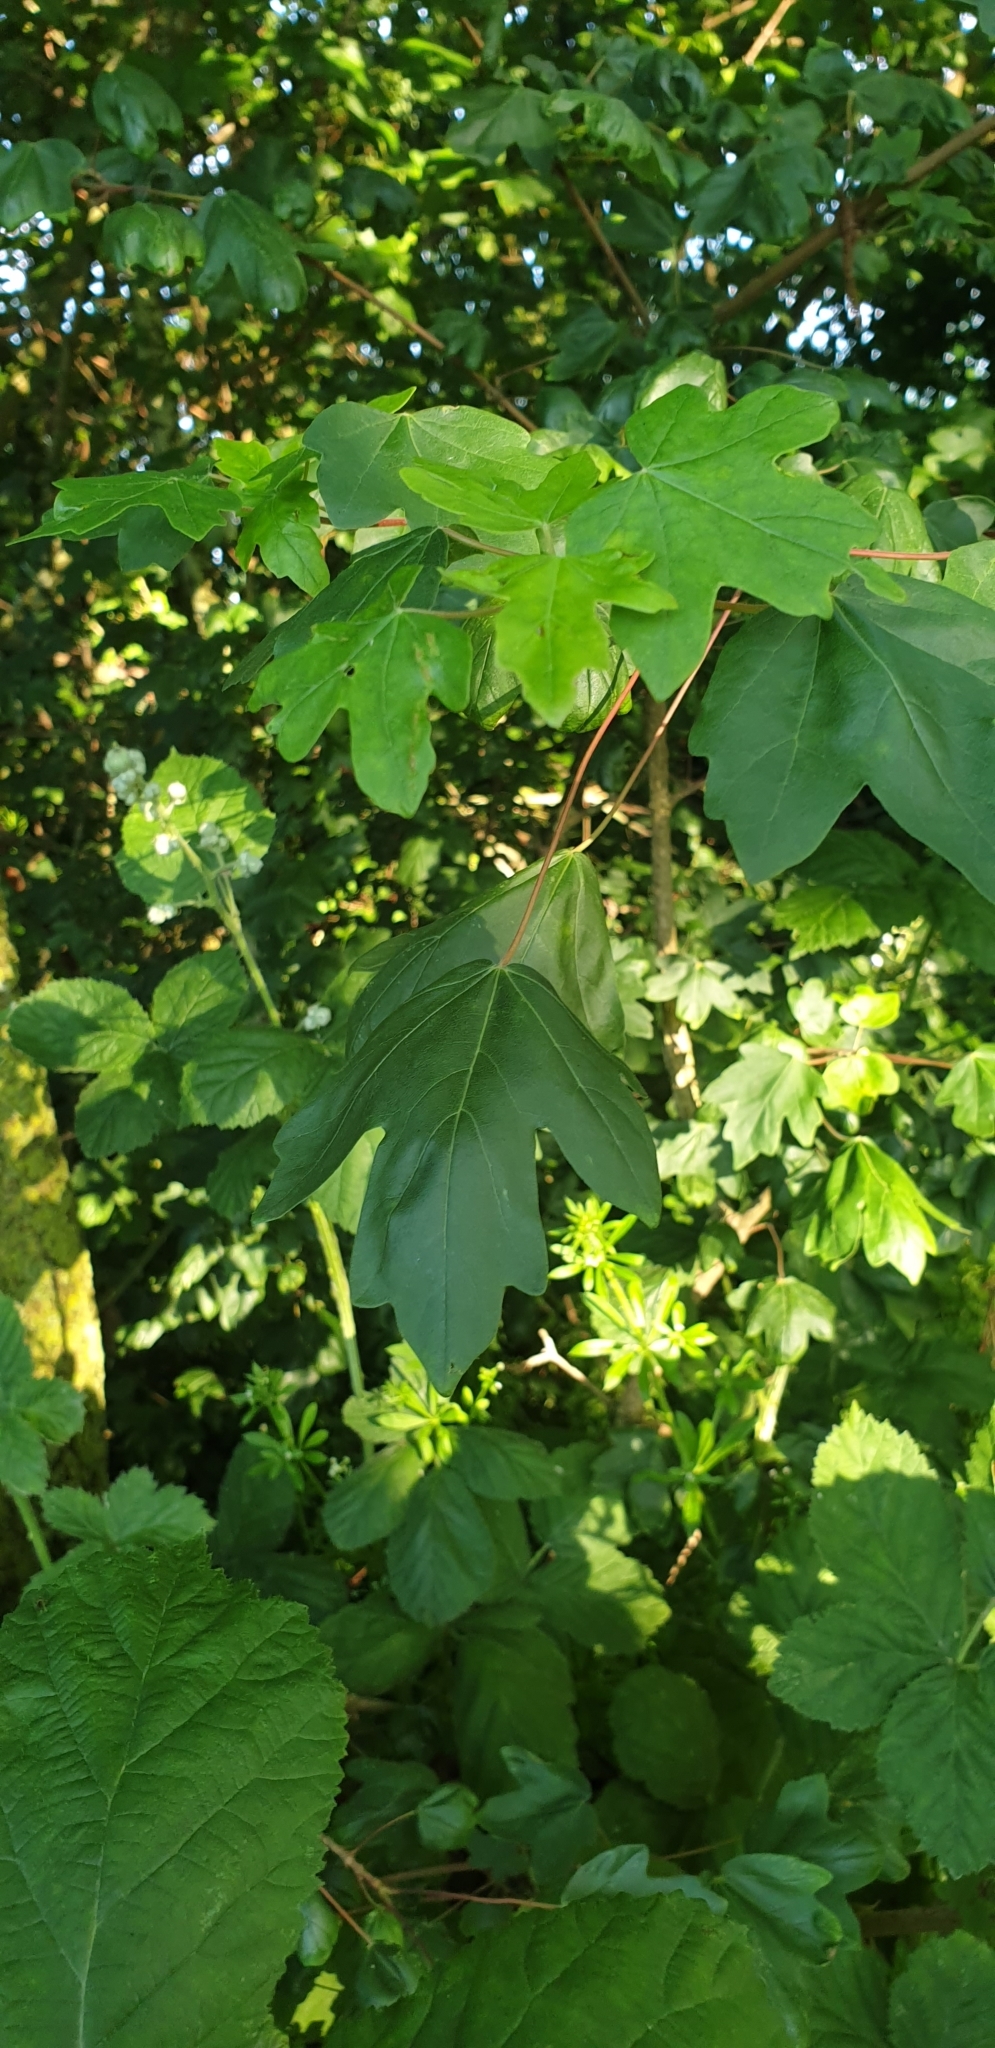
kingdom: Plantae
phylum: Tracheophyta
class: Magnoliopsida
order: Sapindales
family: Sapindaceae
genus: Acer
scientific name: Acer campestre
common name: Field maple
